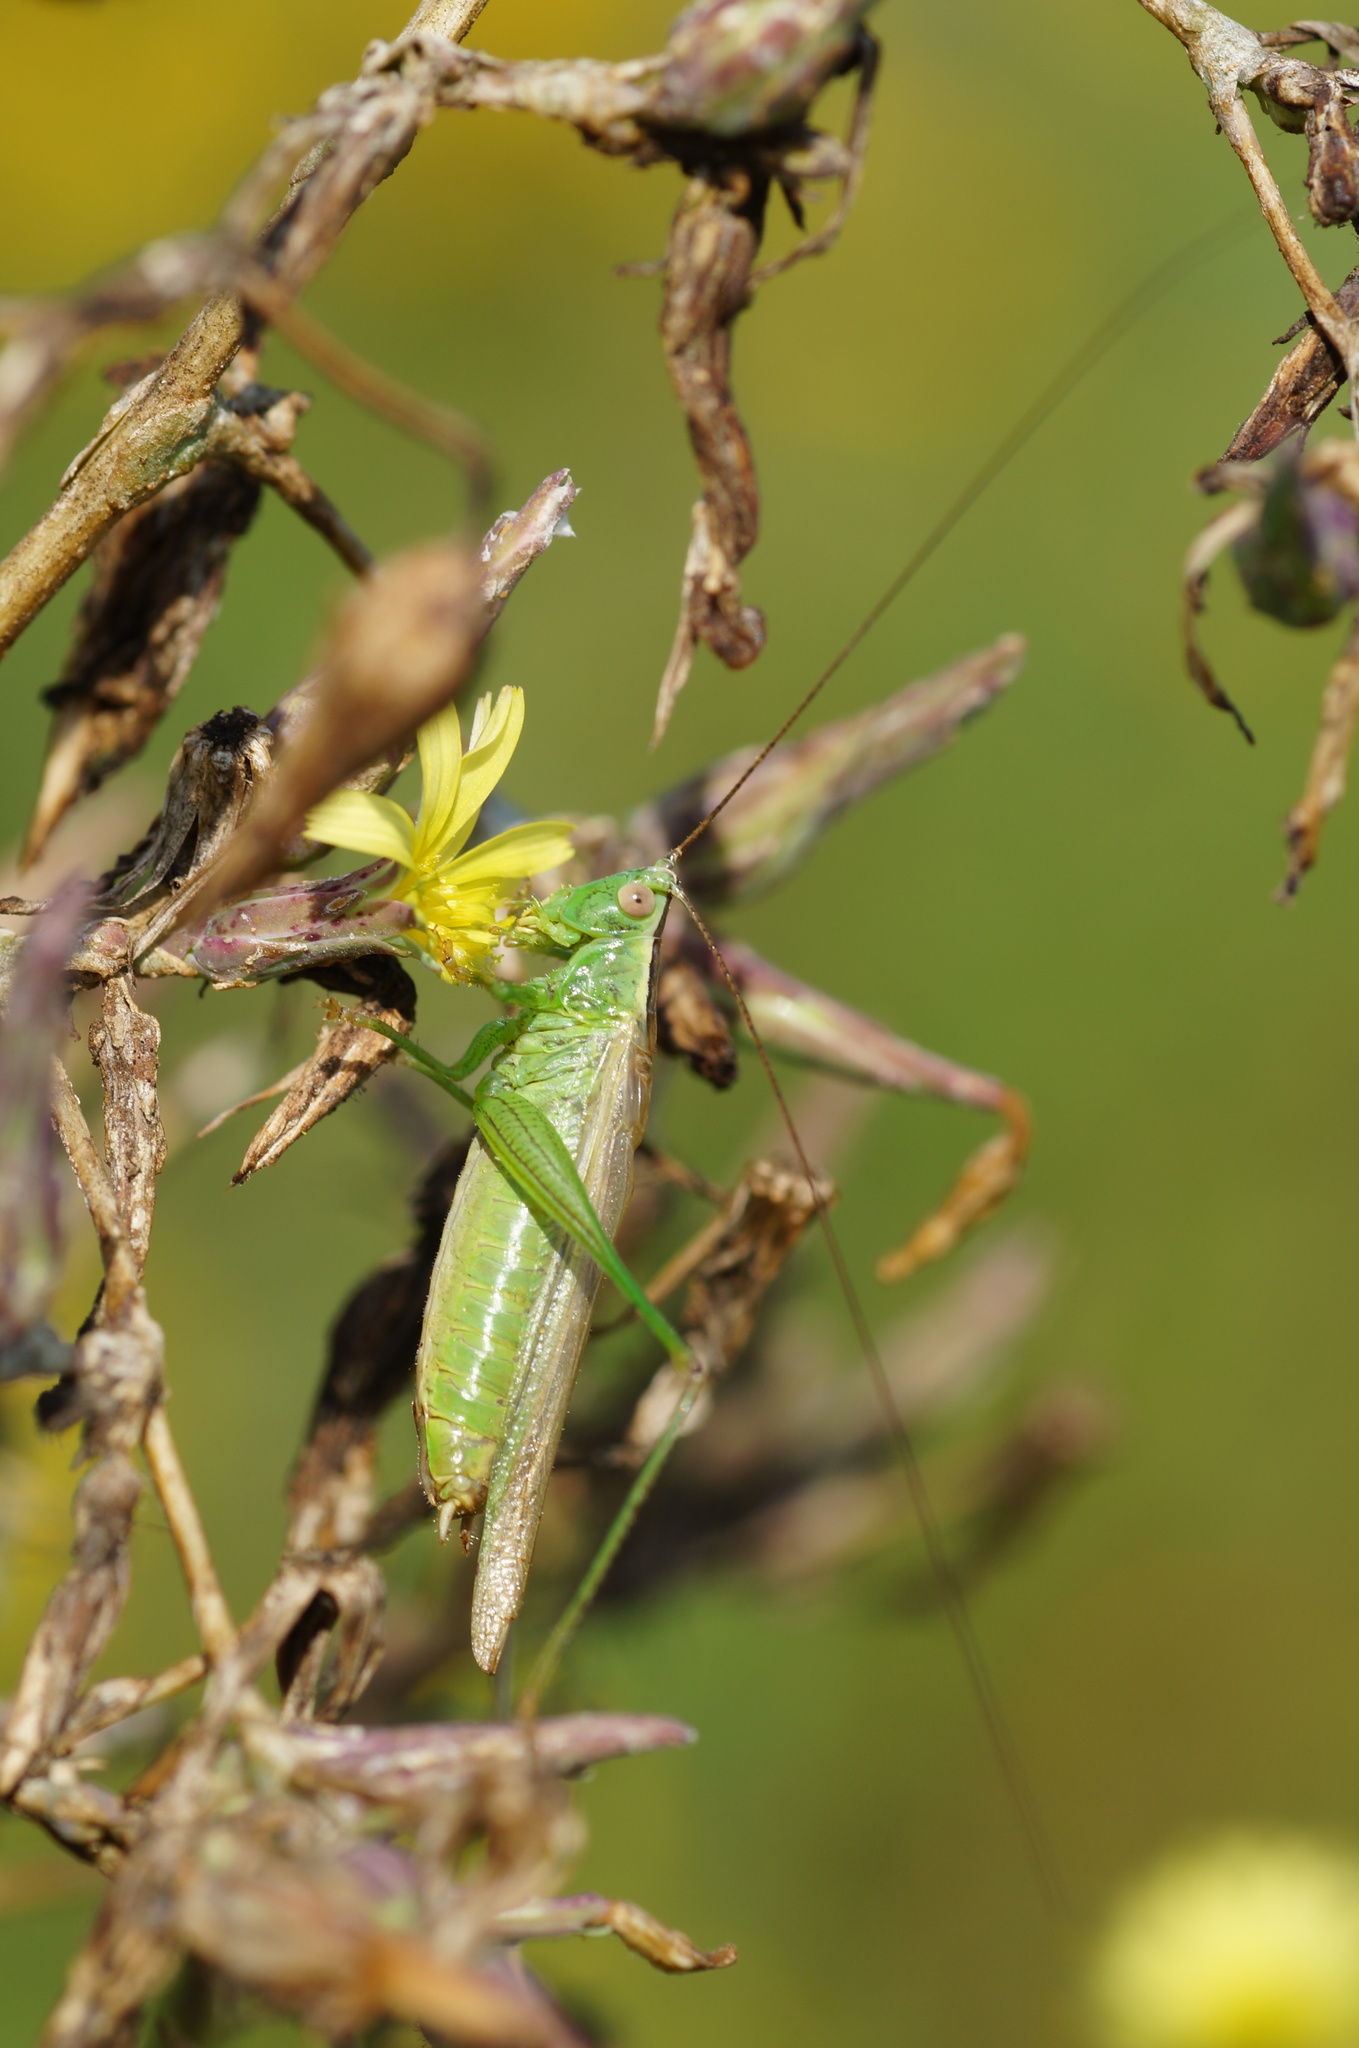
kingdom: Animalia
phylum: Arthropoda
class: Insecta
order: Orthoptera
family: Tettigoniidae
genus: Conocephalus
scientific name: Conocephalus fuscus
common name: Long-winged conehead
